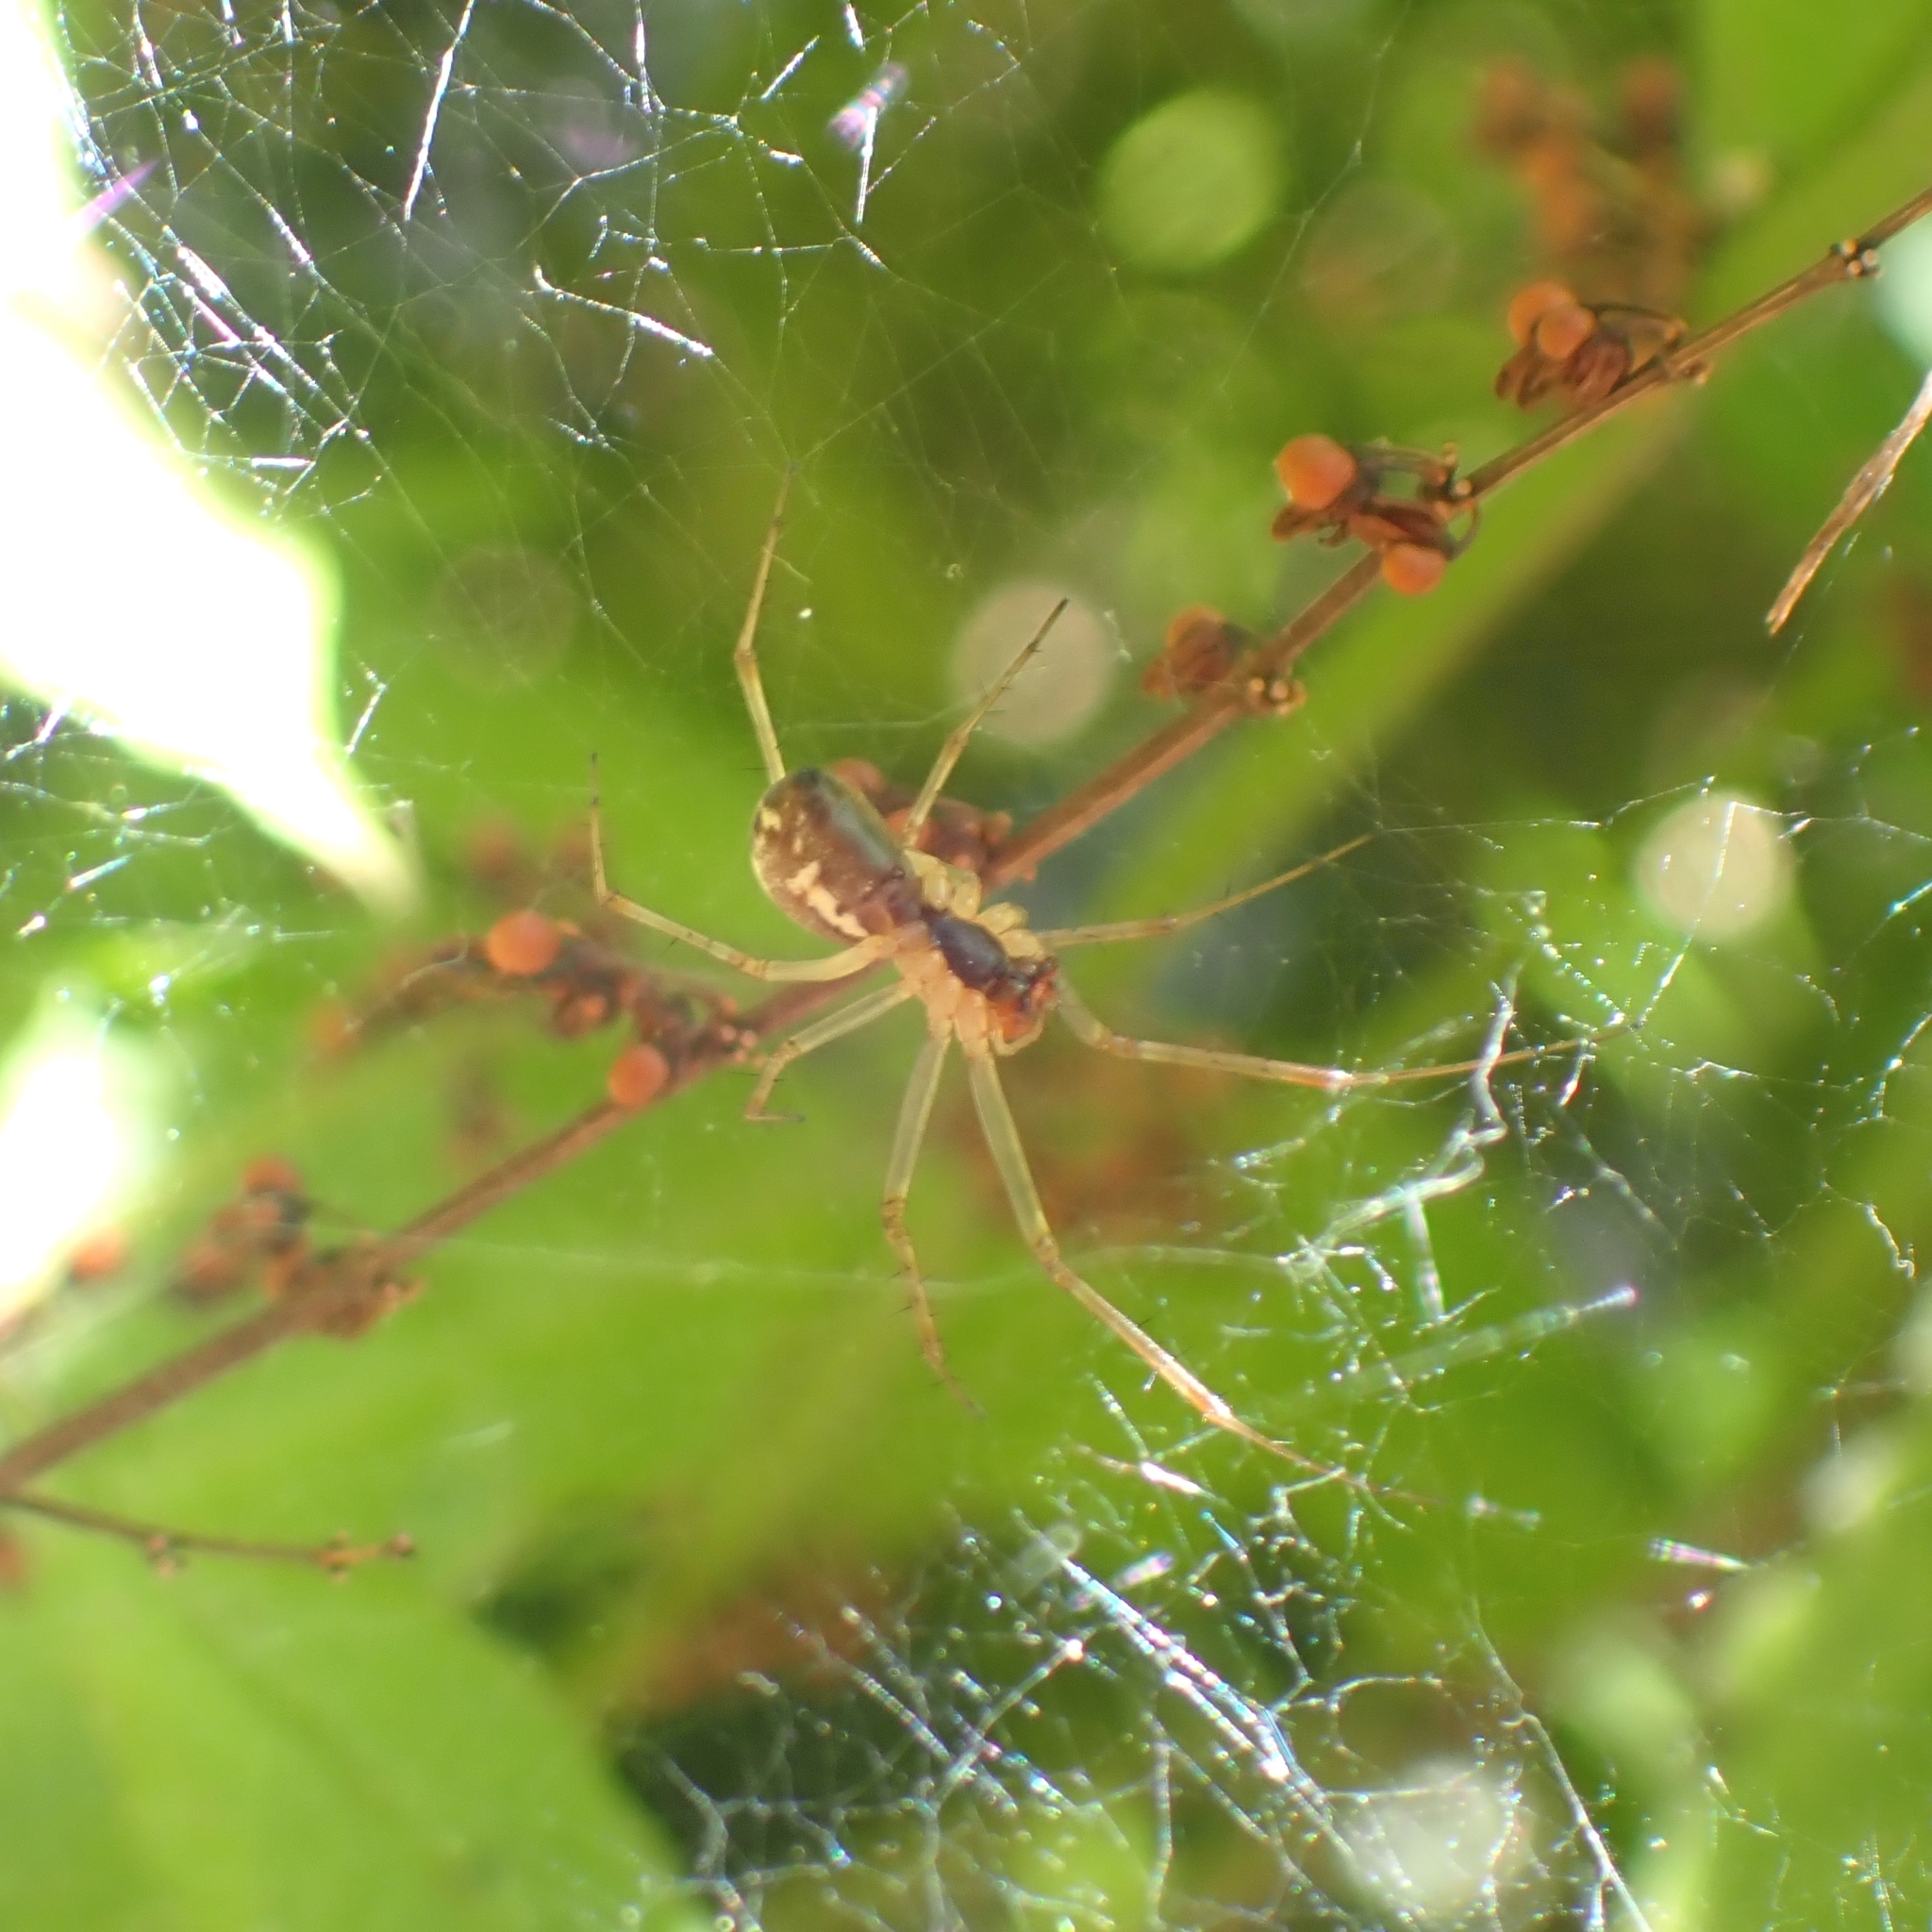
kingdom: Animalia
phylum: Arthropoda
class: Arachnida
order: Araneae
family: Linyphiidae
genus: Linyphia
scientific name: Linyphia triangularis
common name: Money spider
